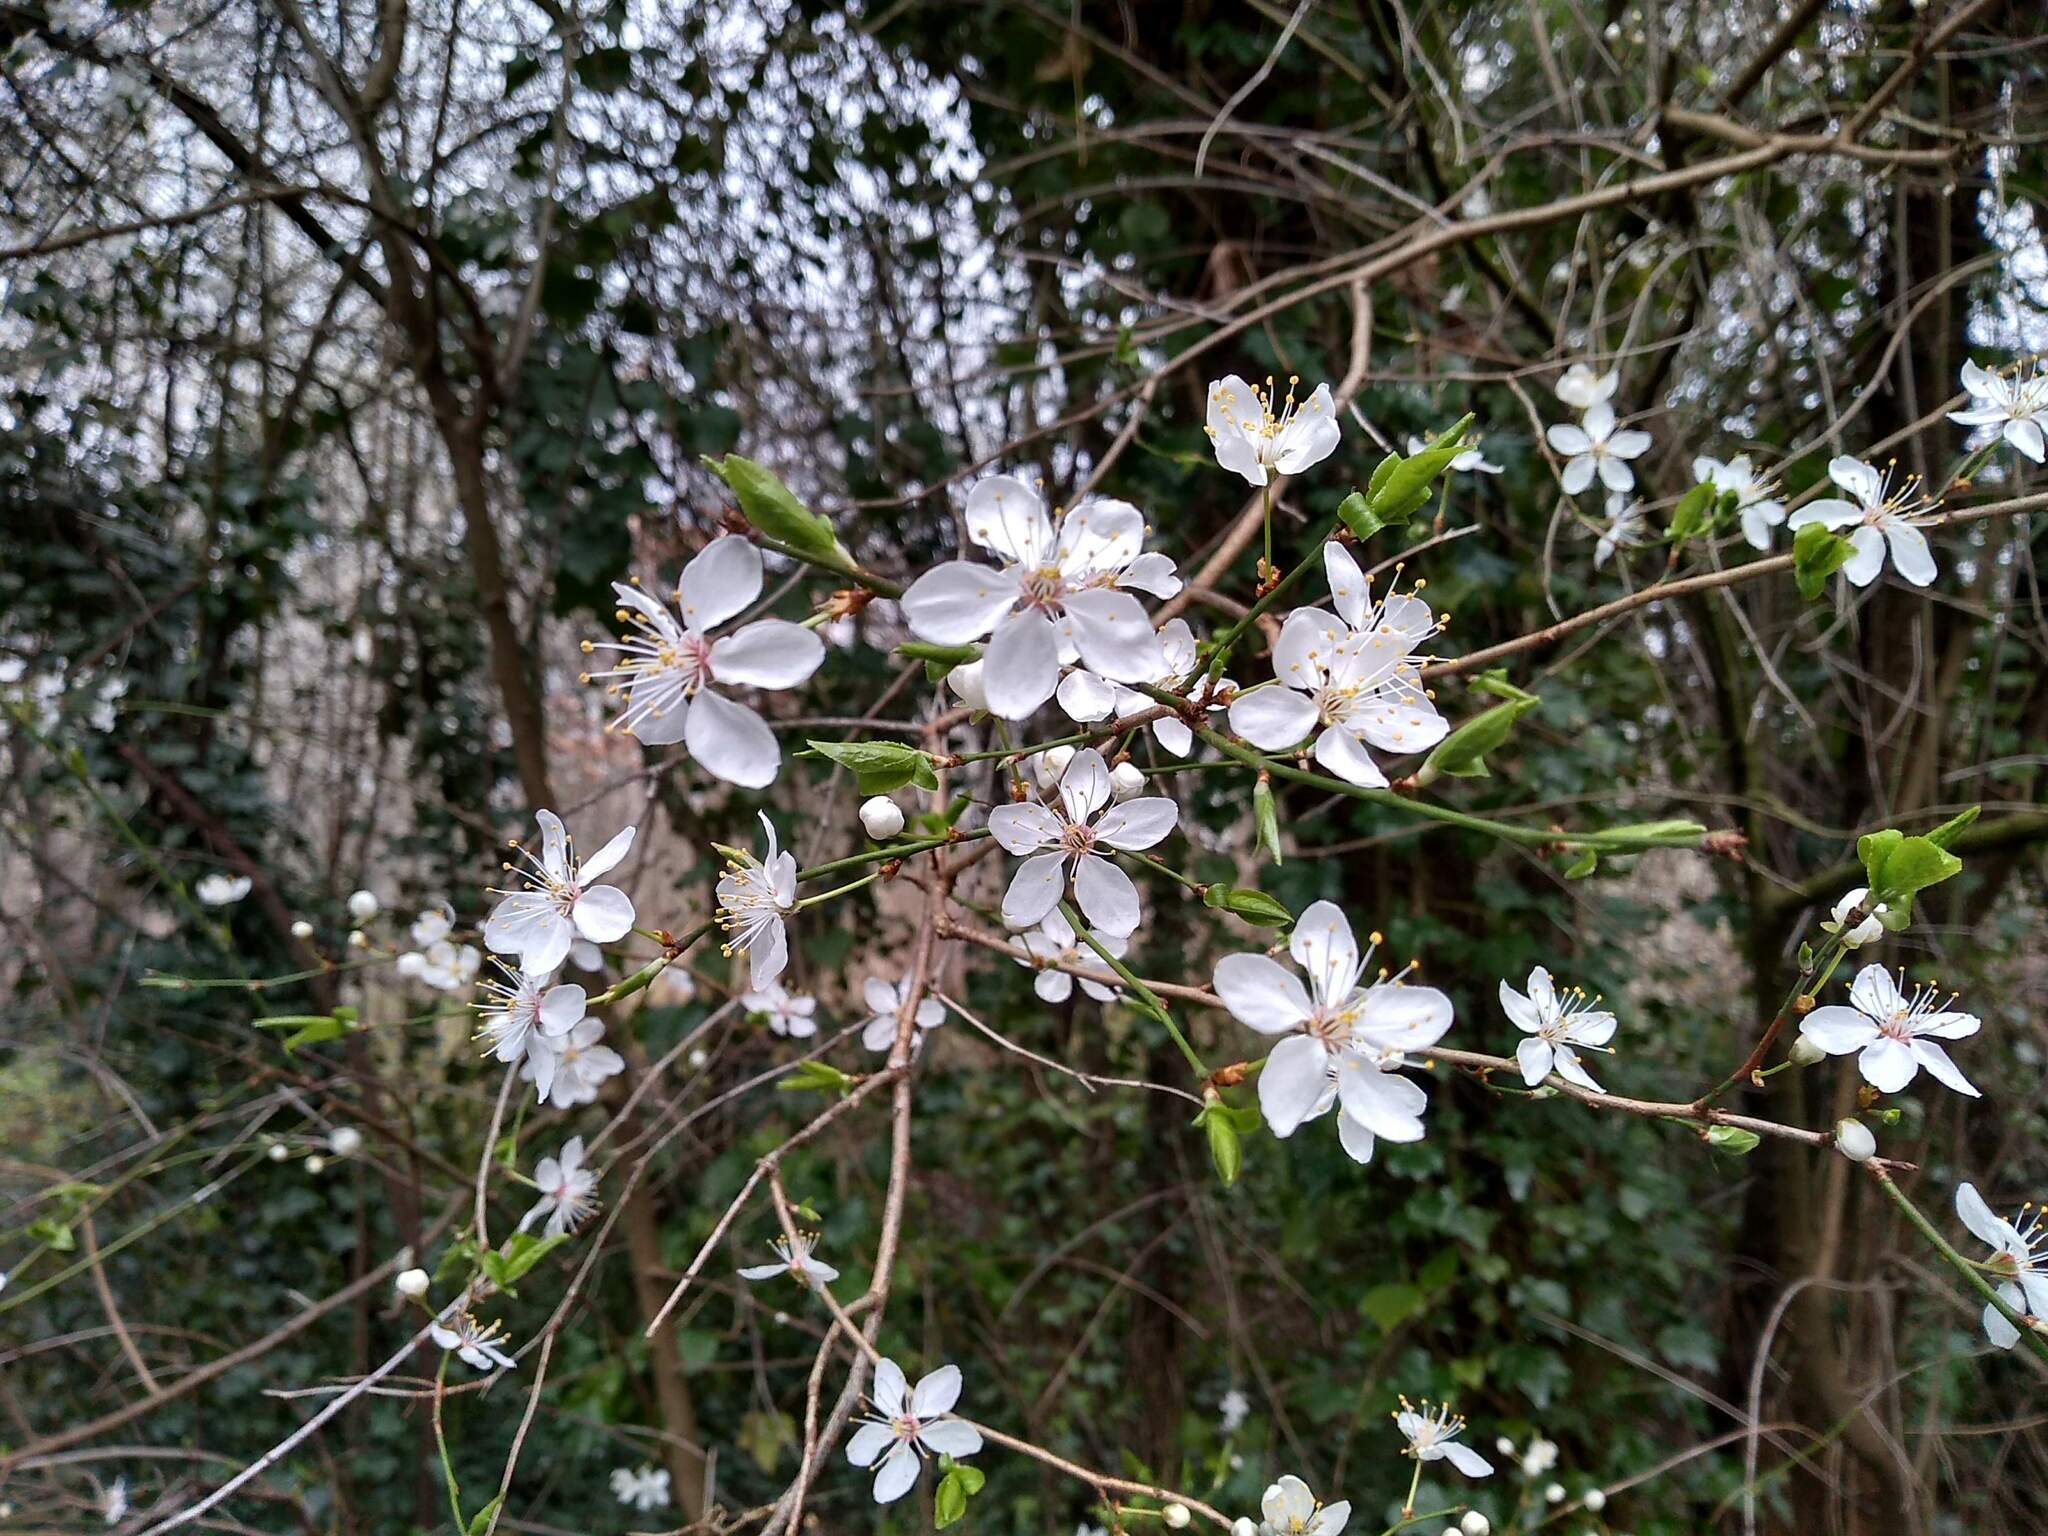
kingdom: Plantae
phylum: Tracheophyta
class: Magnoliopsida
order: Rosales
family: Rosaceae
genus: Prunus
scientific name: Prunus cerasifera
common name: Cherry plum
